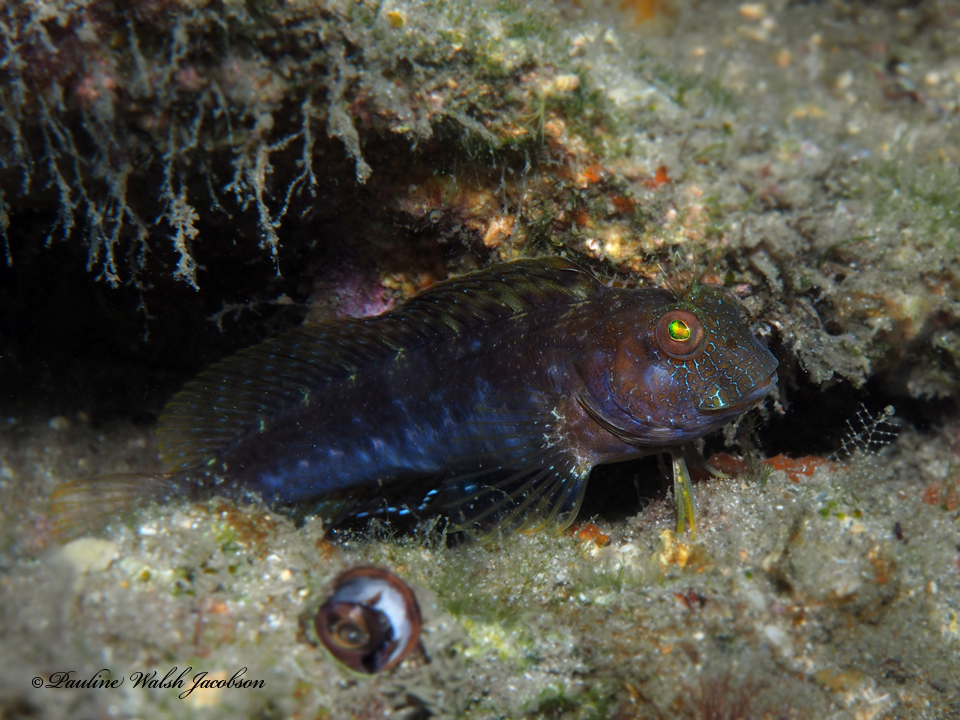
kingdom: Animalia
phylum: Chordata
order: Perciformes
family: Blenniidae
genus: Parablennius
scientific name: Parablennius marmoreus
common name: Seaweed blenny
